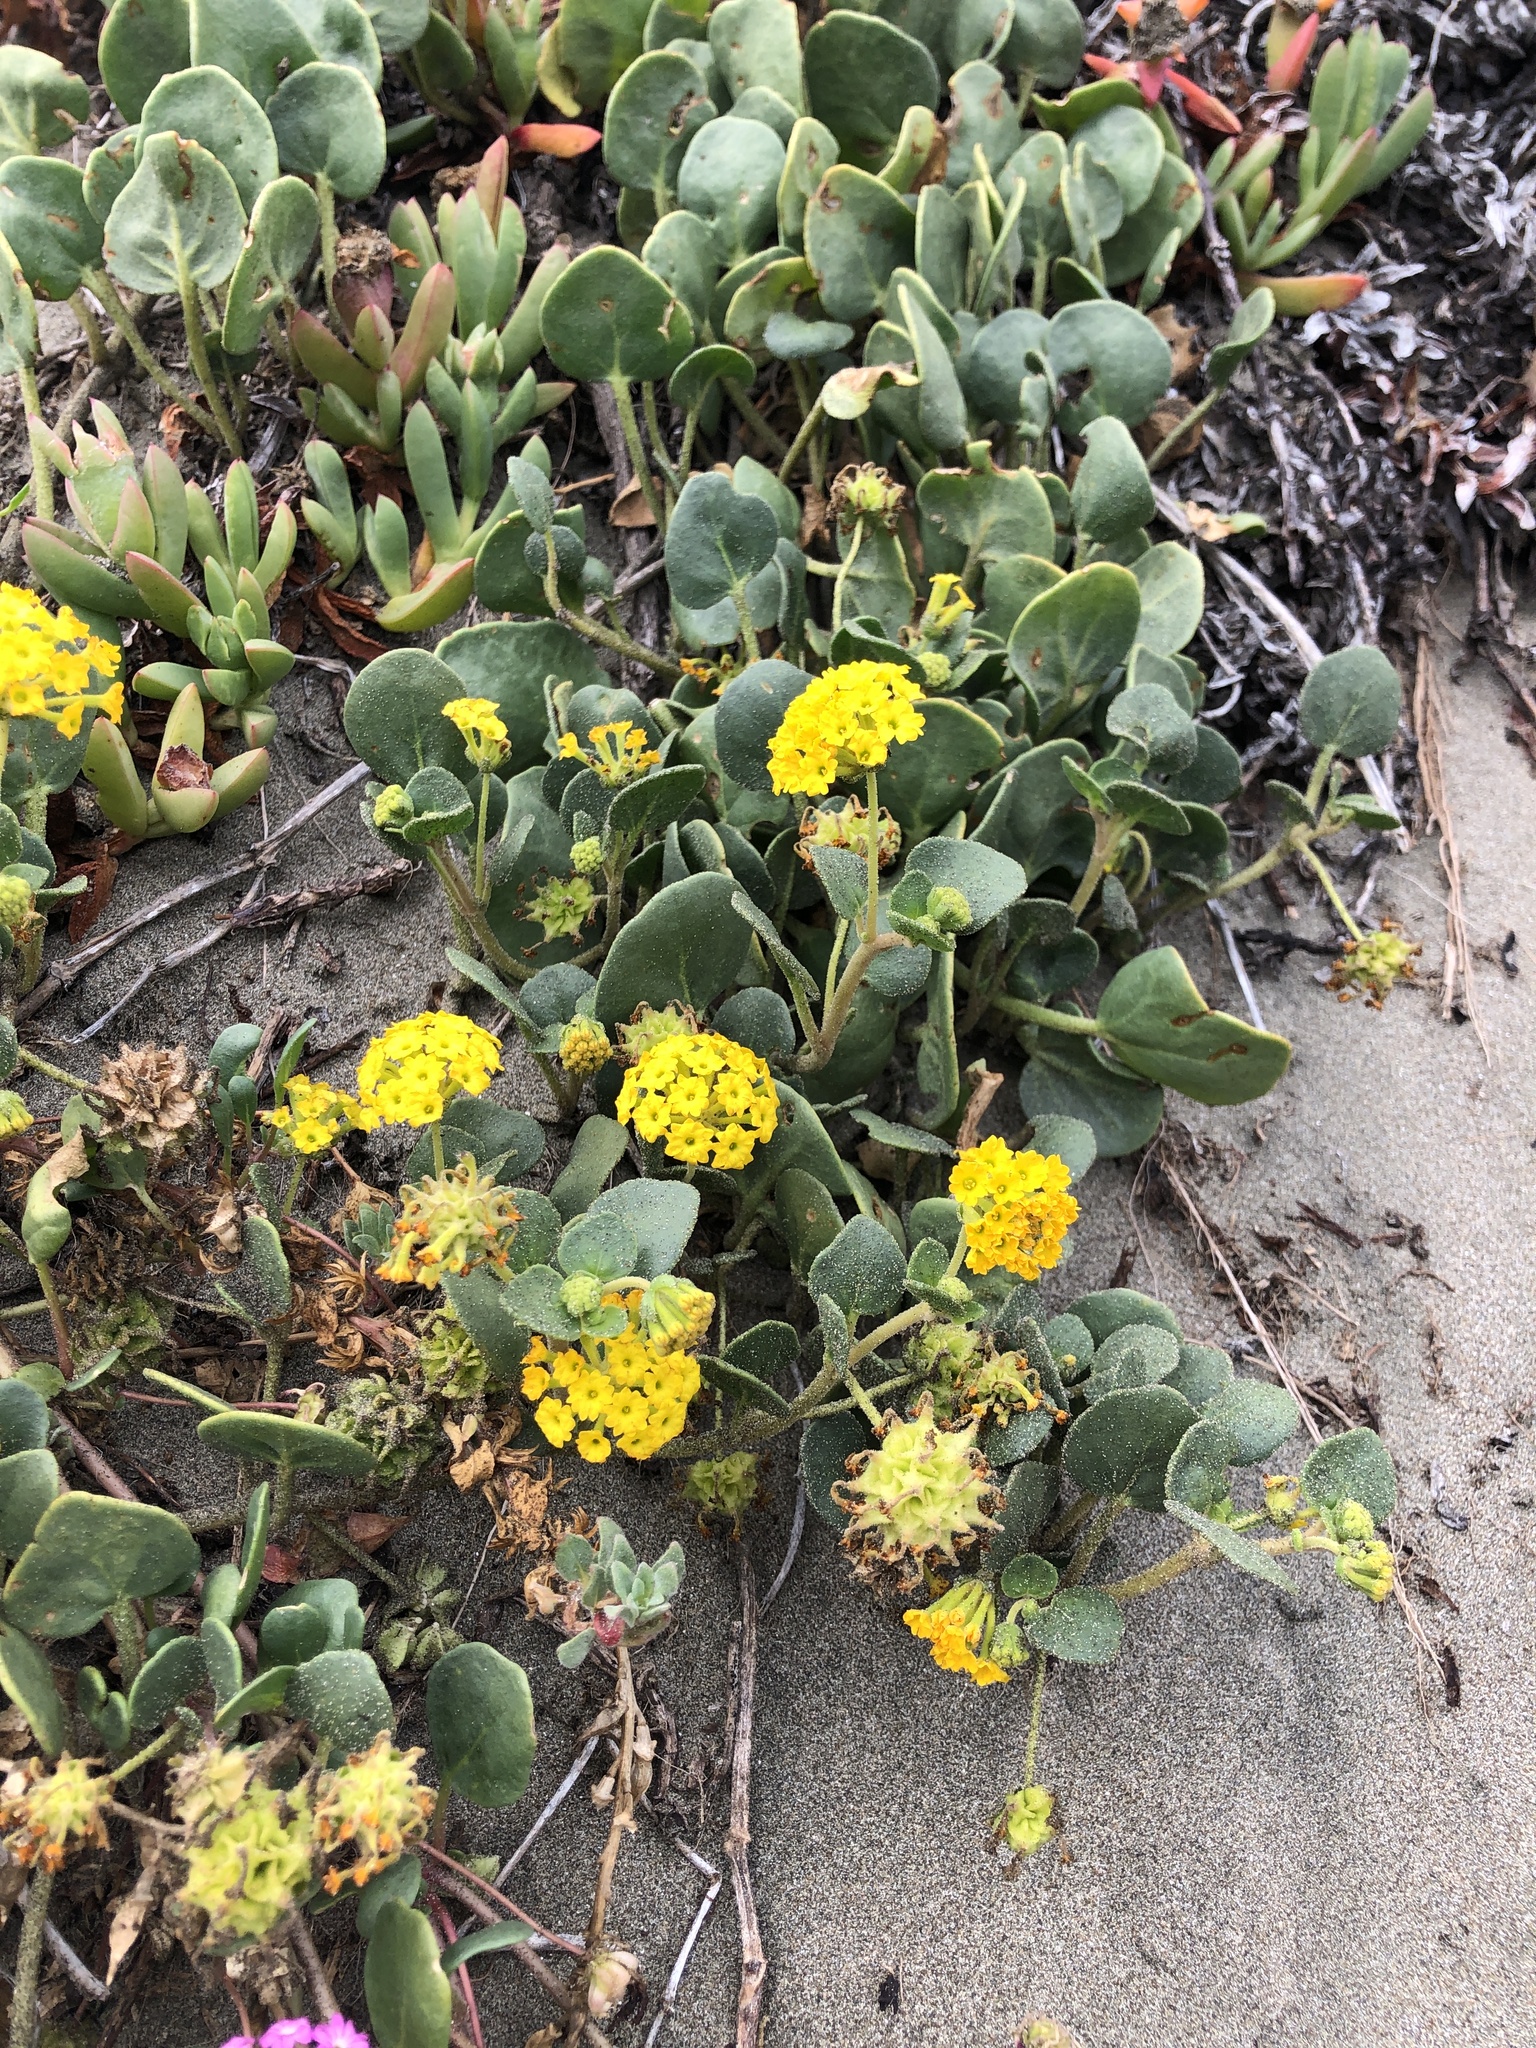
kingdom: Plantae
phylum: Tracheophyta
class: Magnoliopsida
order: Caryophyllales
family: Nyctaginaceae
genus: Abronia
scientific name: Abronia latifolia
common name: Yellow sand-verbena
